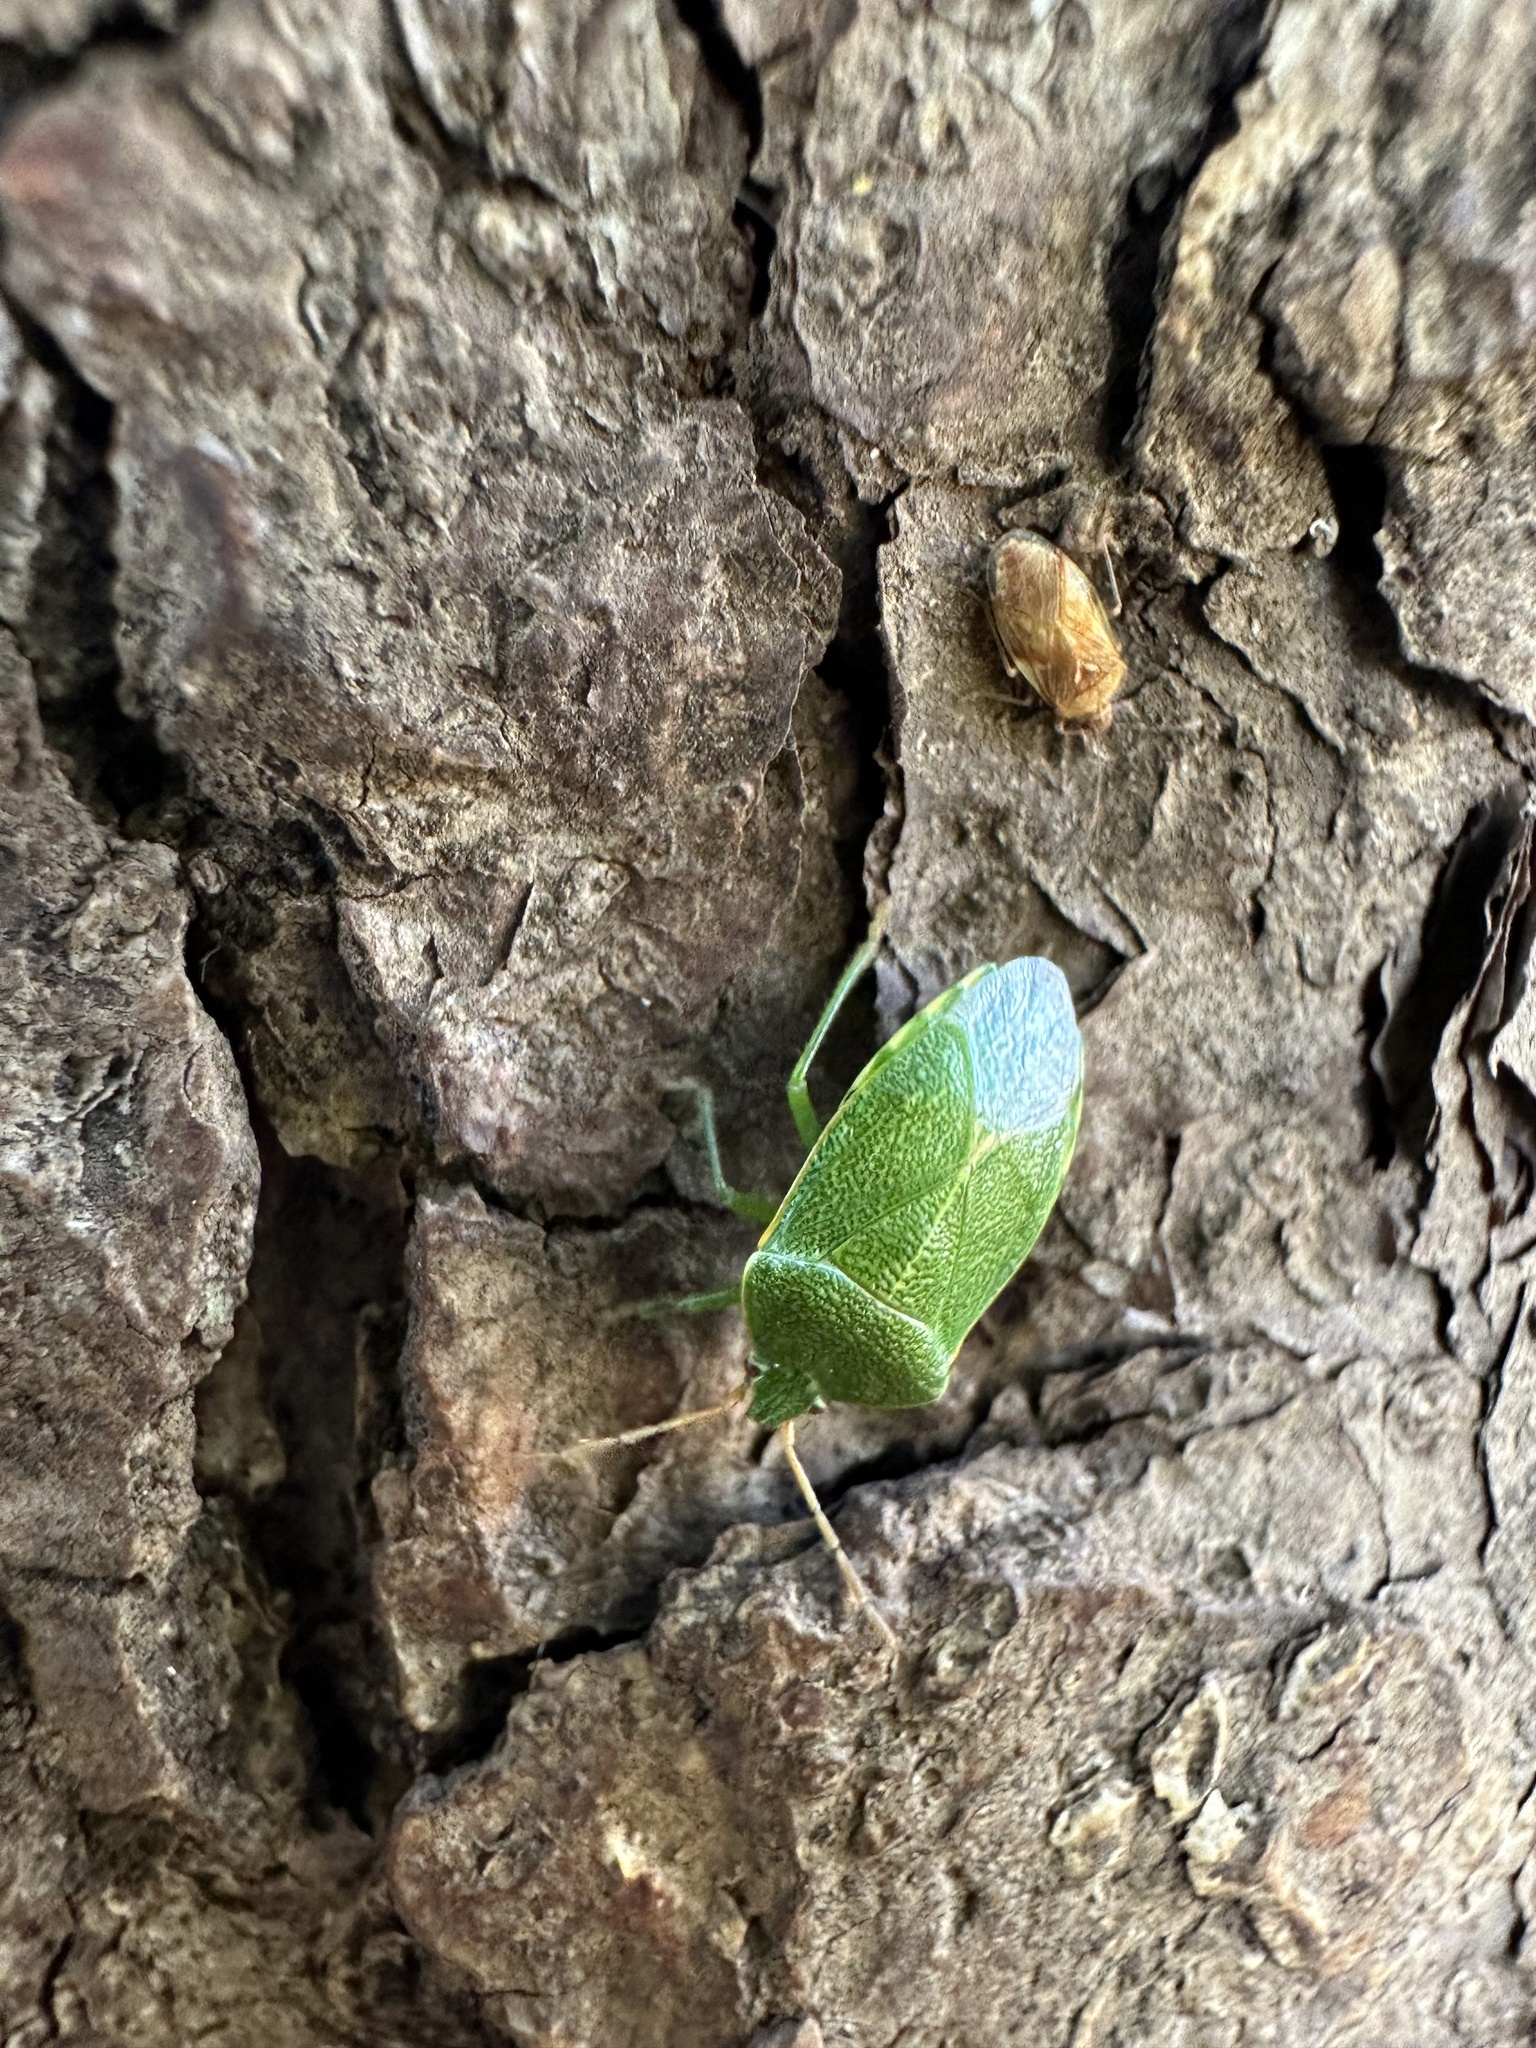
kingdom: Animalia
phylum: Arthropoda
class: Insecta
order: Hemiptera
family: Acanthosomatidae
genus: Sinopla
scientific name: Sinopla perpunctatus
